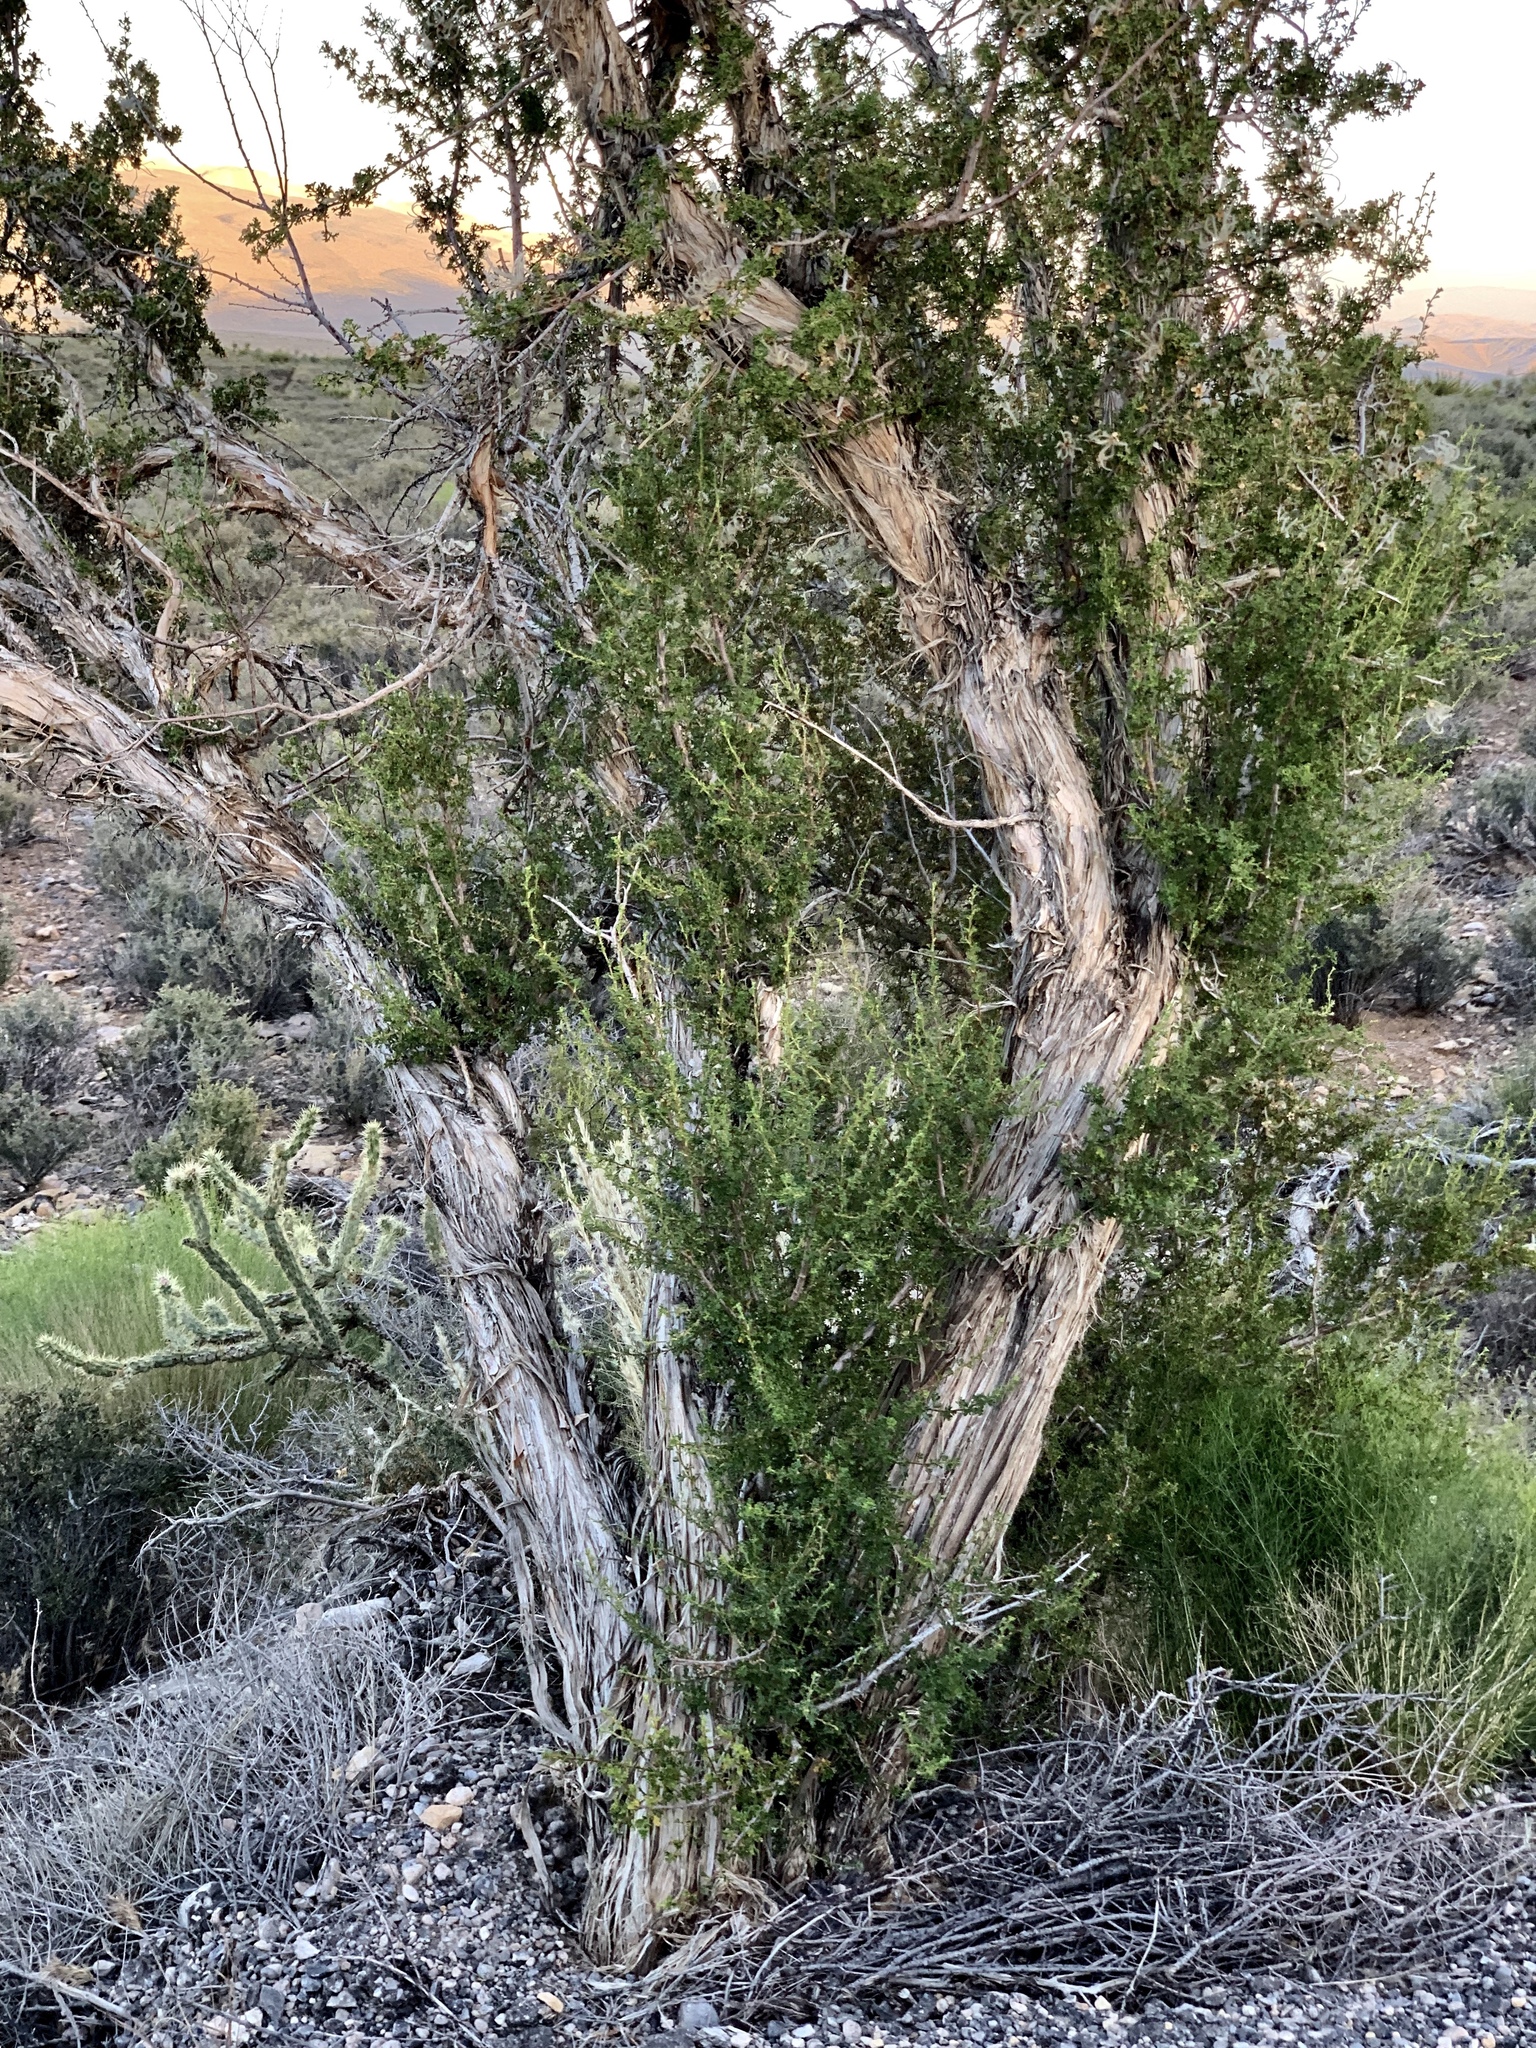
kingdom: Plantae
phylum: Tracheophyta
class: Magnoliopsida
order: Rosales
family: Rosaceae
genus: Purshia
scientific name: Purshia stansburiana
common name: Stansbury's cliffrose
